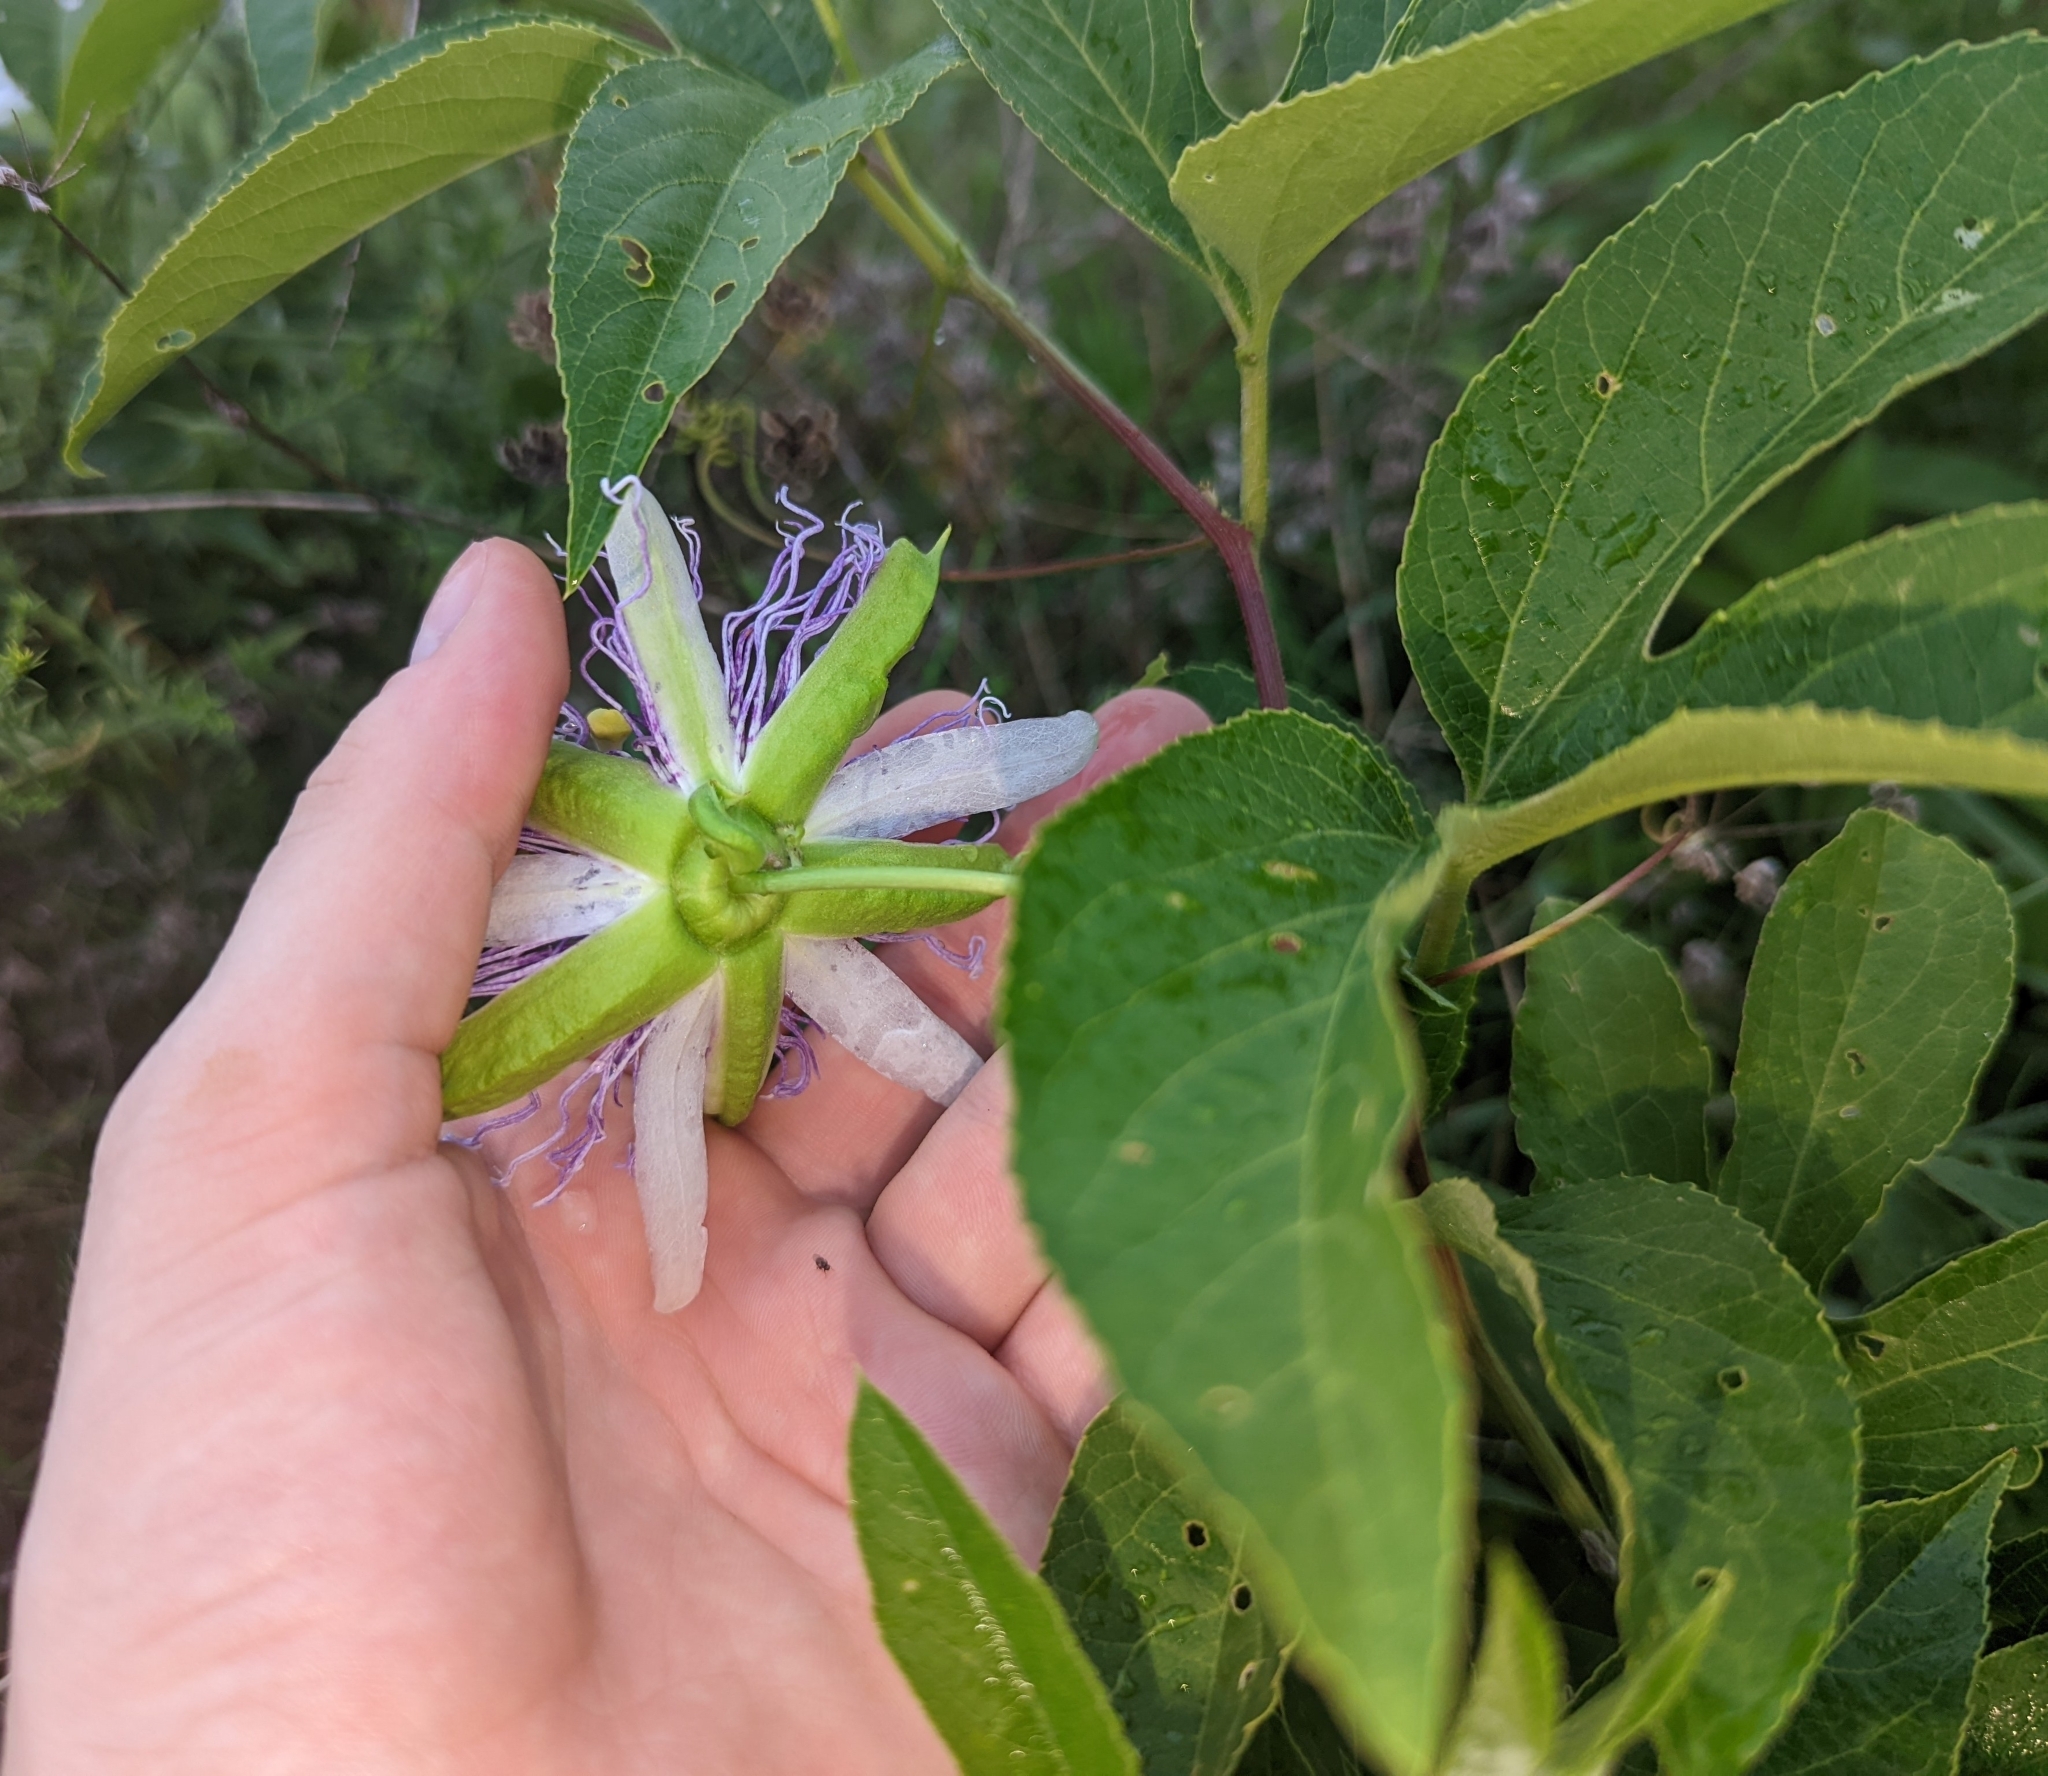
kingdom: Plantae
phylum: Tracheophyta
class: Magnoliopsida
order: Malpighiales
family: Passifloraceae
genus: Passiflora
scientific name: Passiflora incarnata
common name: Apricot-vine
